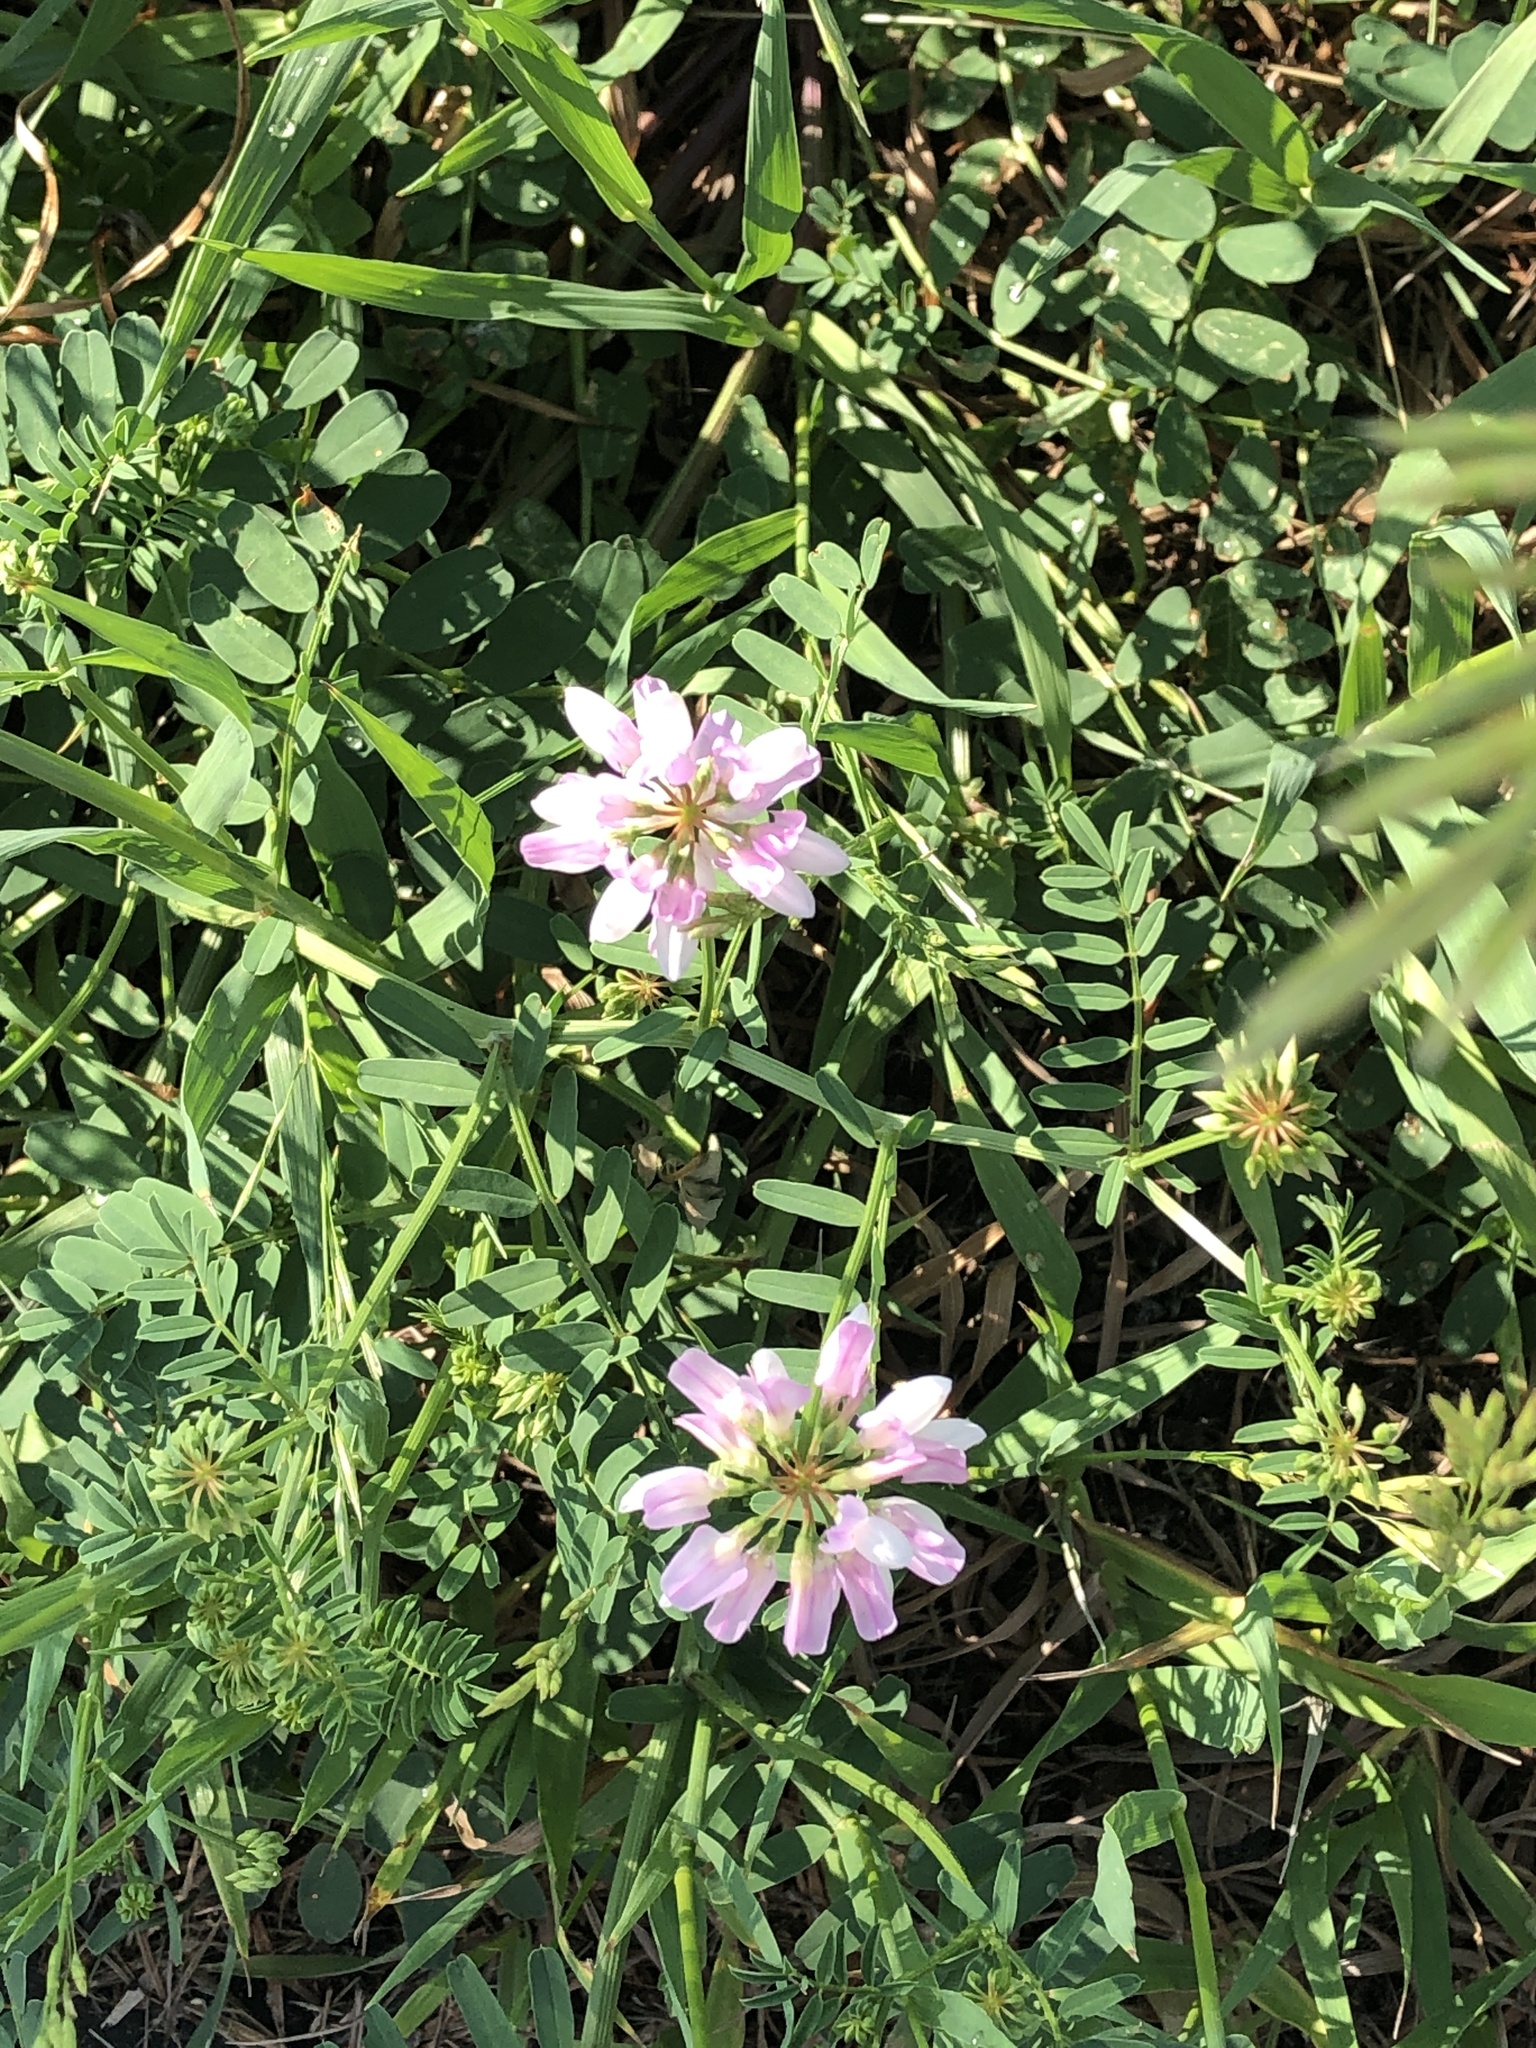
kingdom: Plantae
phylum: Tracheophyta
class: Magnoliopsida
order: Fabales
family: Fabaceae
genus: Coronilla
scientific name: Coronilla varia
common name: Crownvetch
